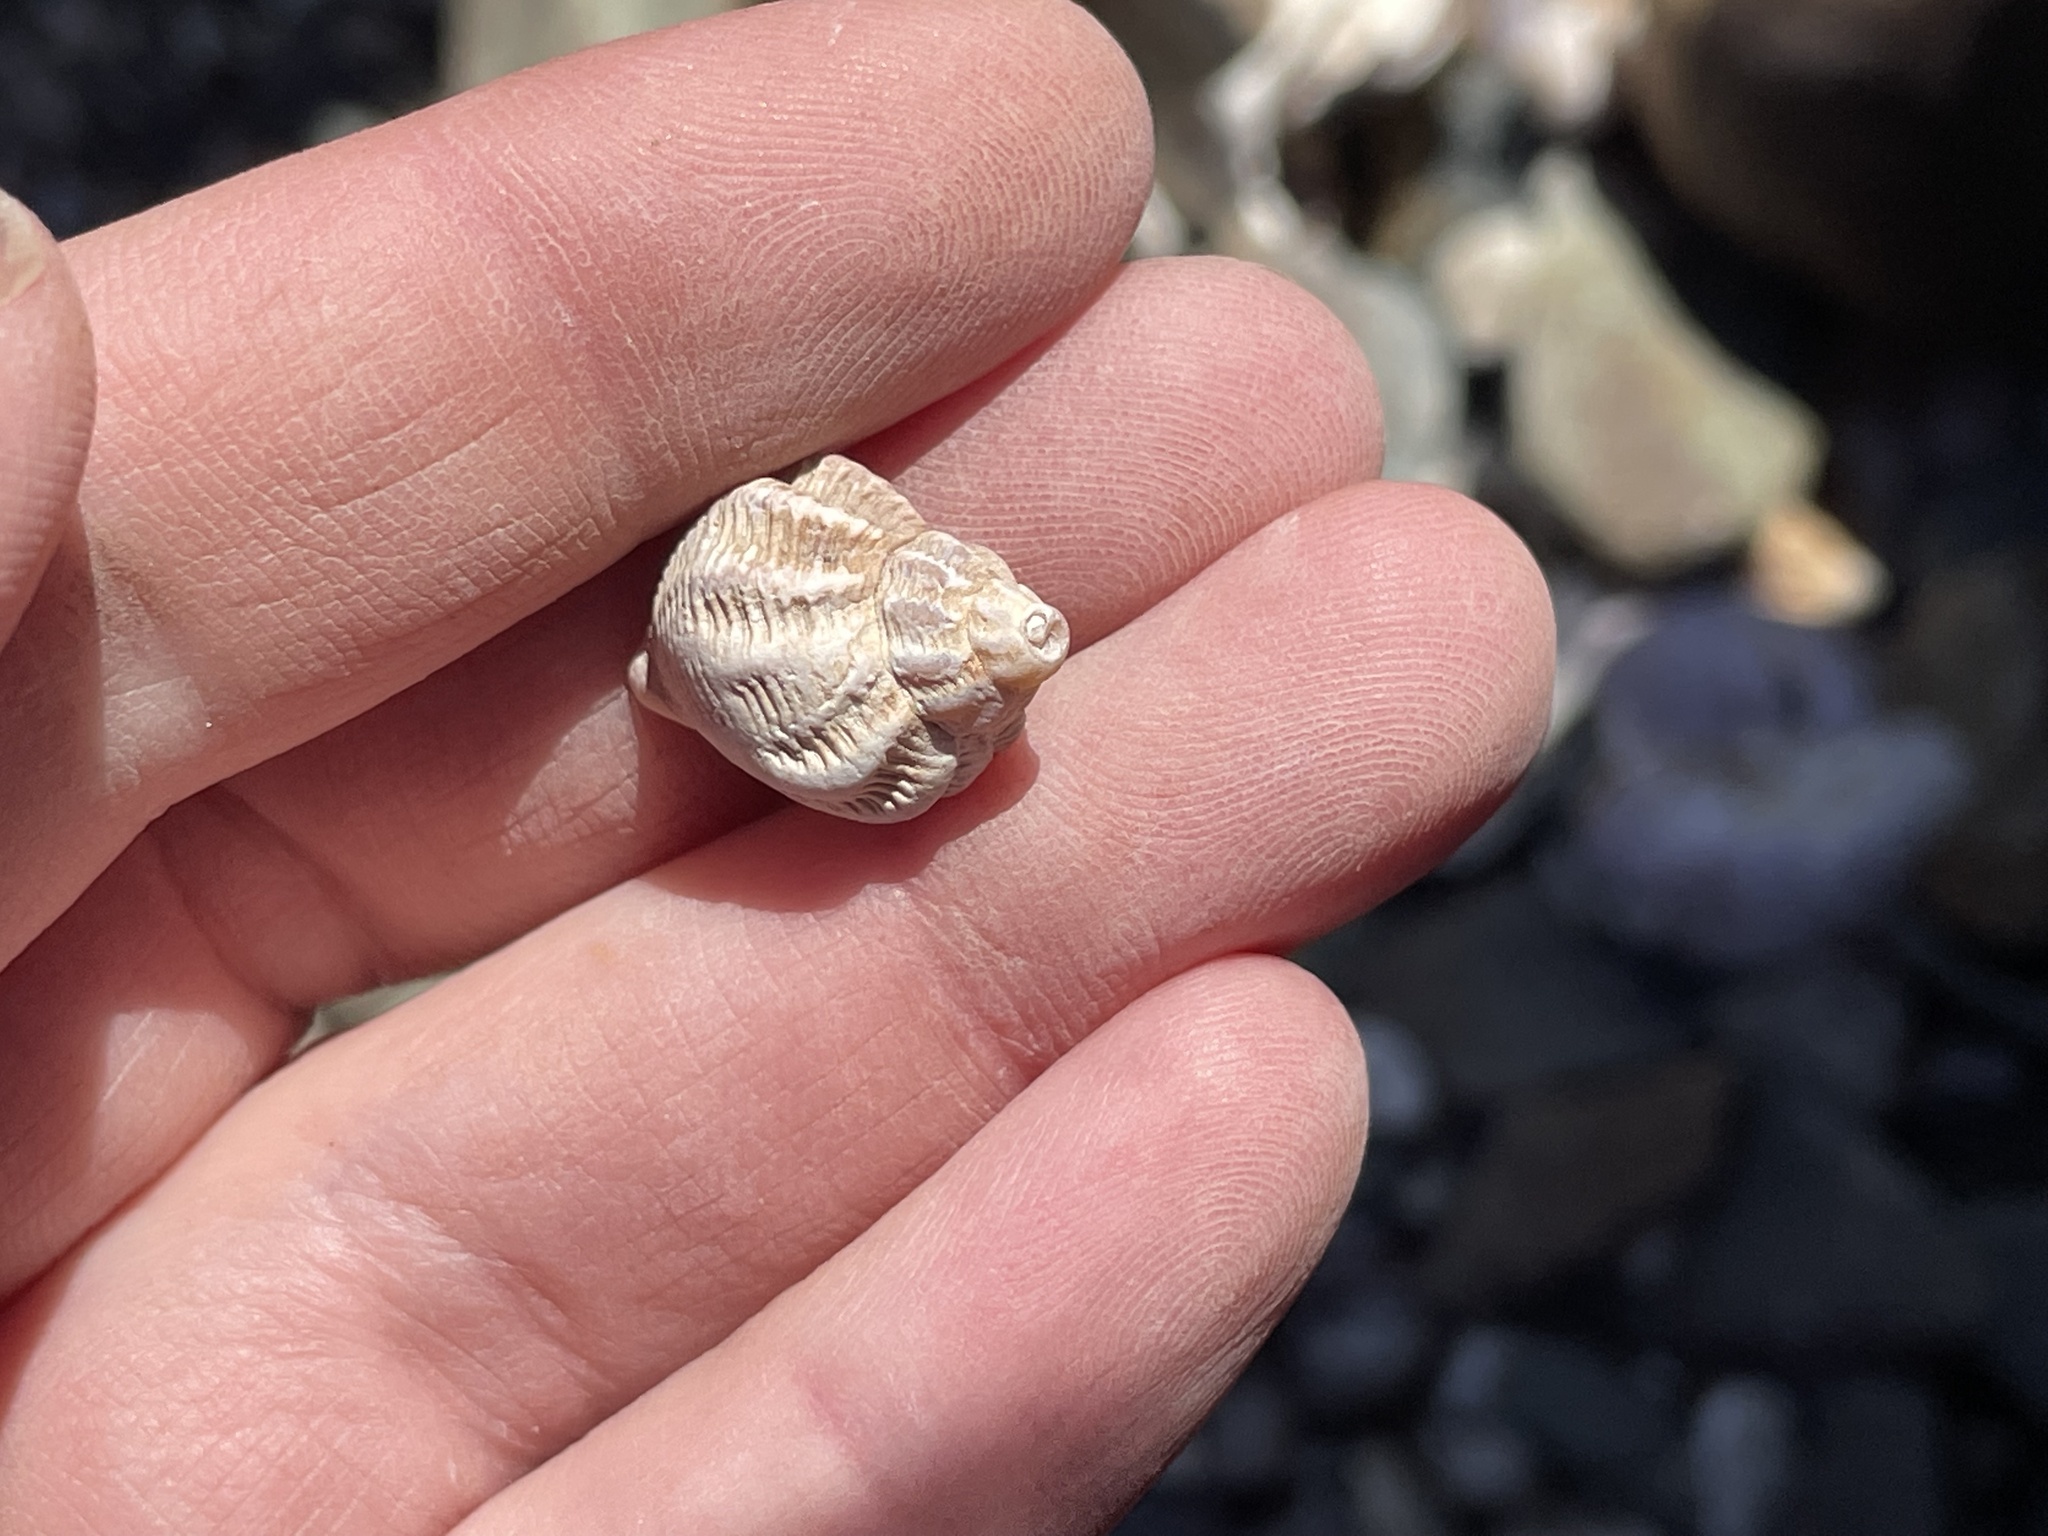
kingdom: Animalia
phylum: Mollusca
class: Gastropoda
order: Neogastropoda
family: Buccinidae
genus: Buccinum
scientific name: Buccinum undatum
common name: Common whelk
